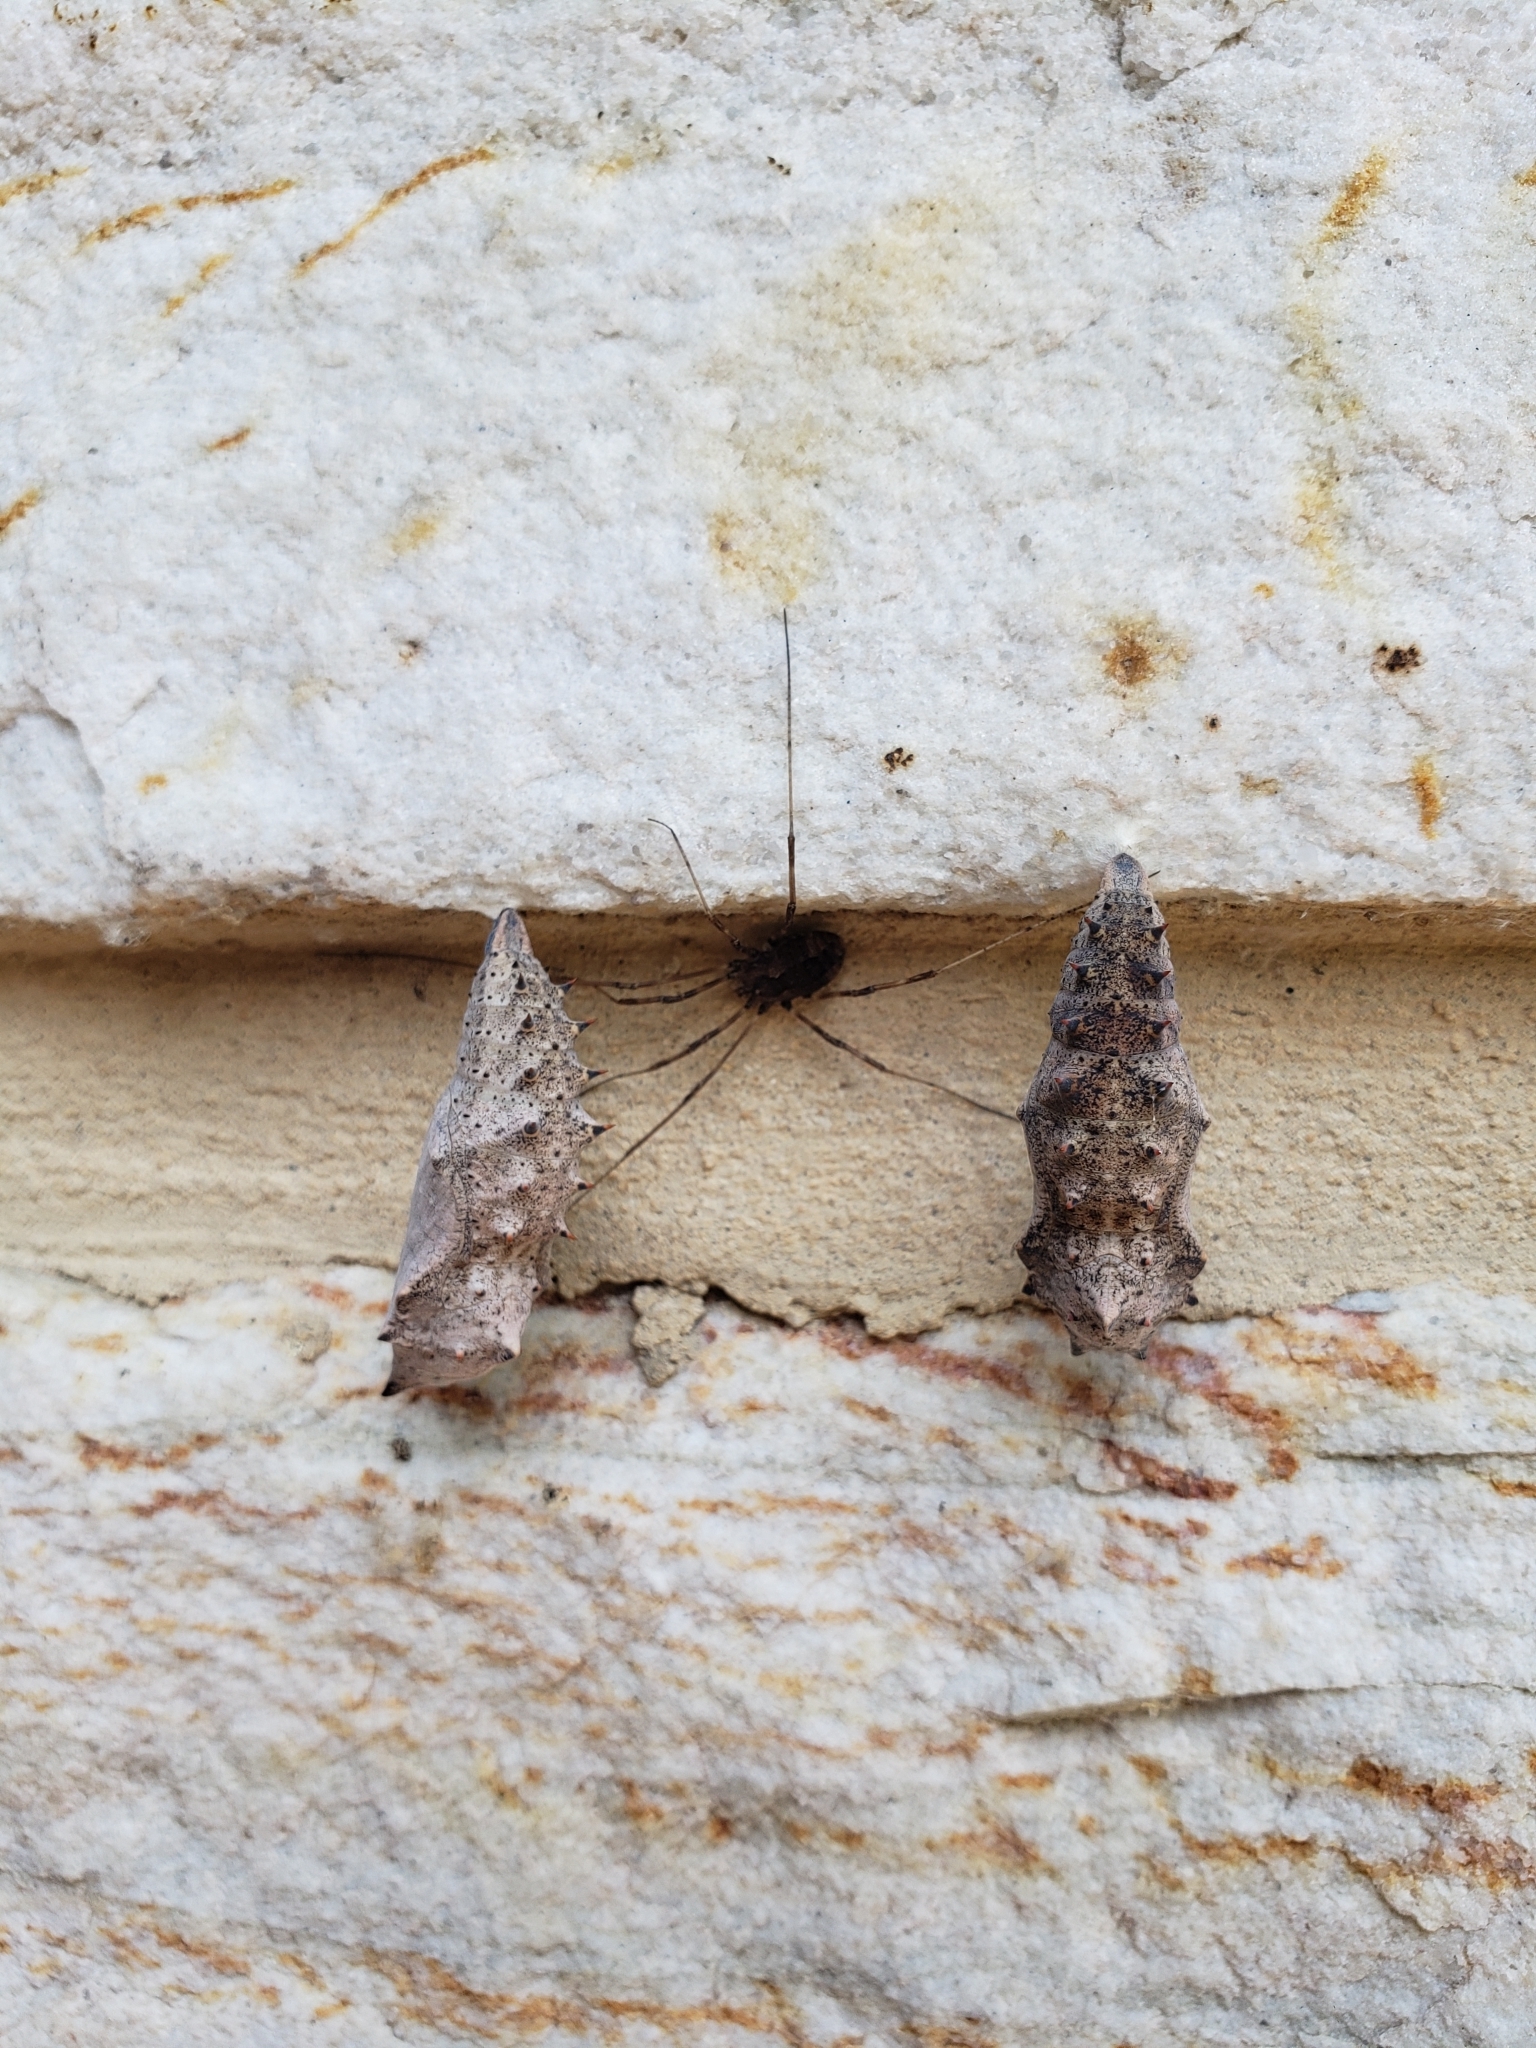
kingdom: Animalia
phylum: Arthropoda
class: Insecta
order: Lepidoptera
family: Nymphalidae
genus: Nymphalis
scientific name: Nymphalis antiopa
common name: Camberwell beauty
